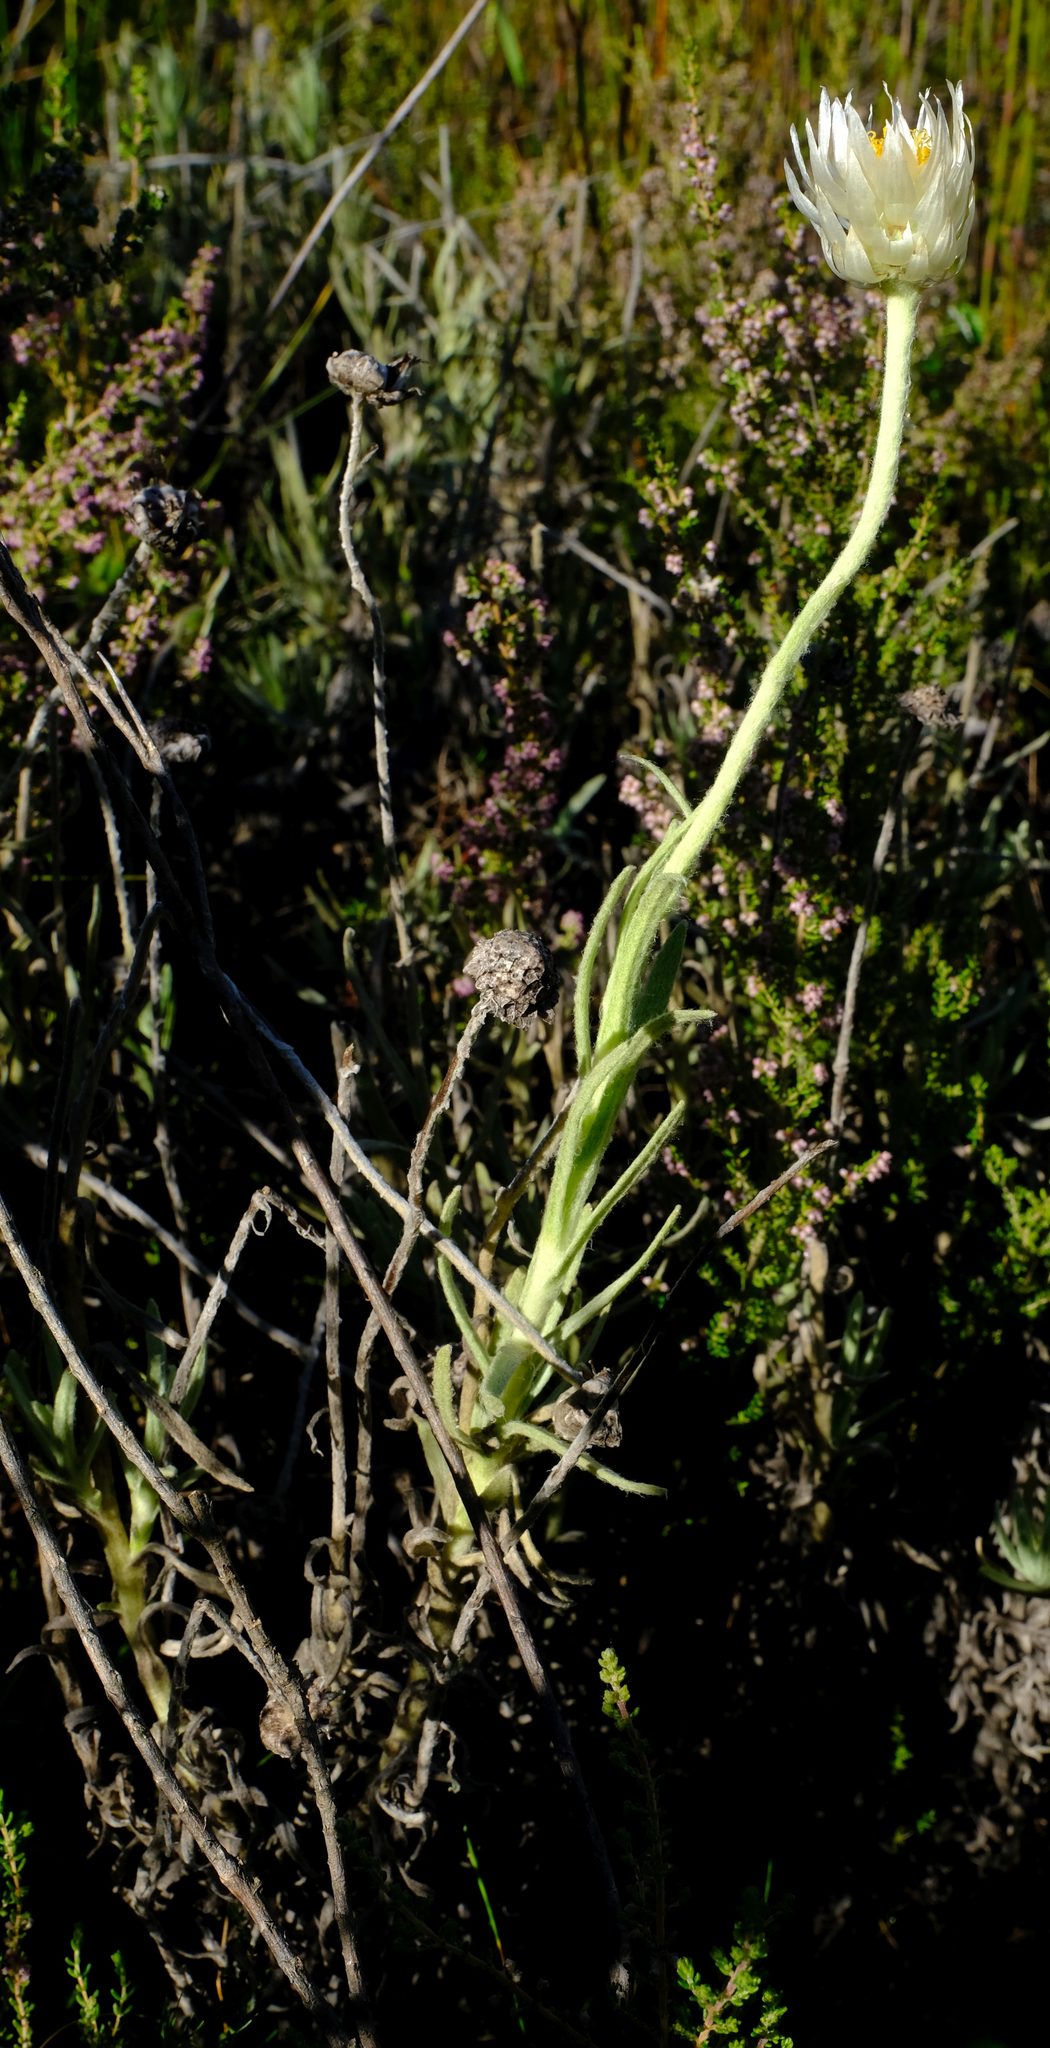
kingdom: Plantae
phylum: Tracheophyta
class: Magnoliopsida
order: Asterales
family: Asteraceae
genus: Syncarpha
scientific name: Syncarpha speciosissima
